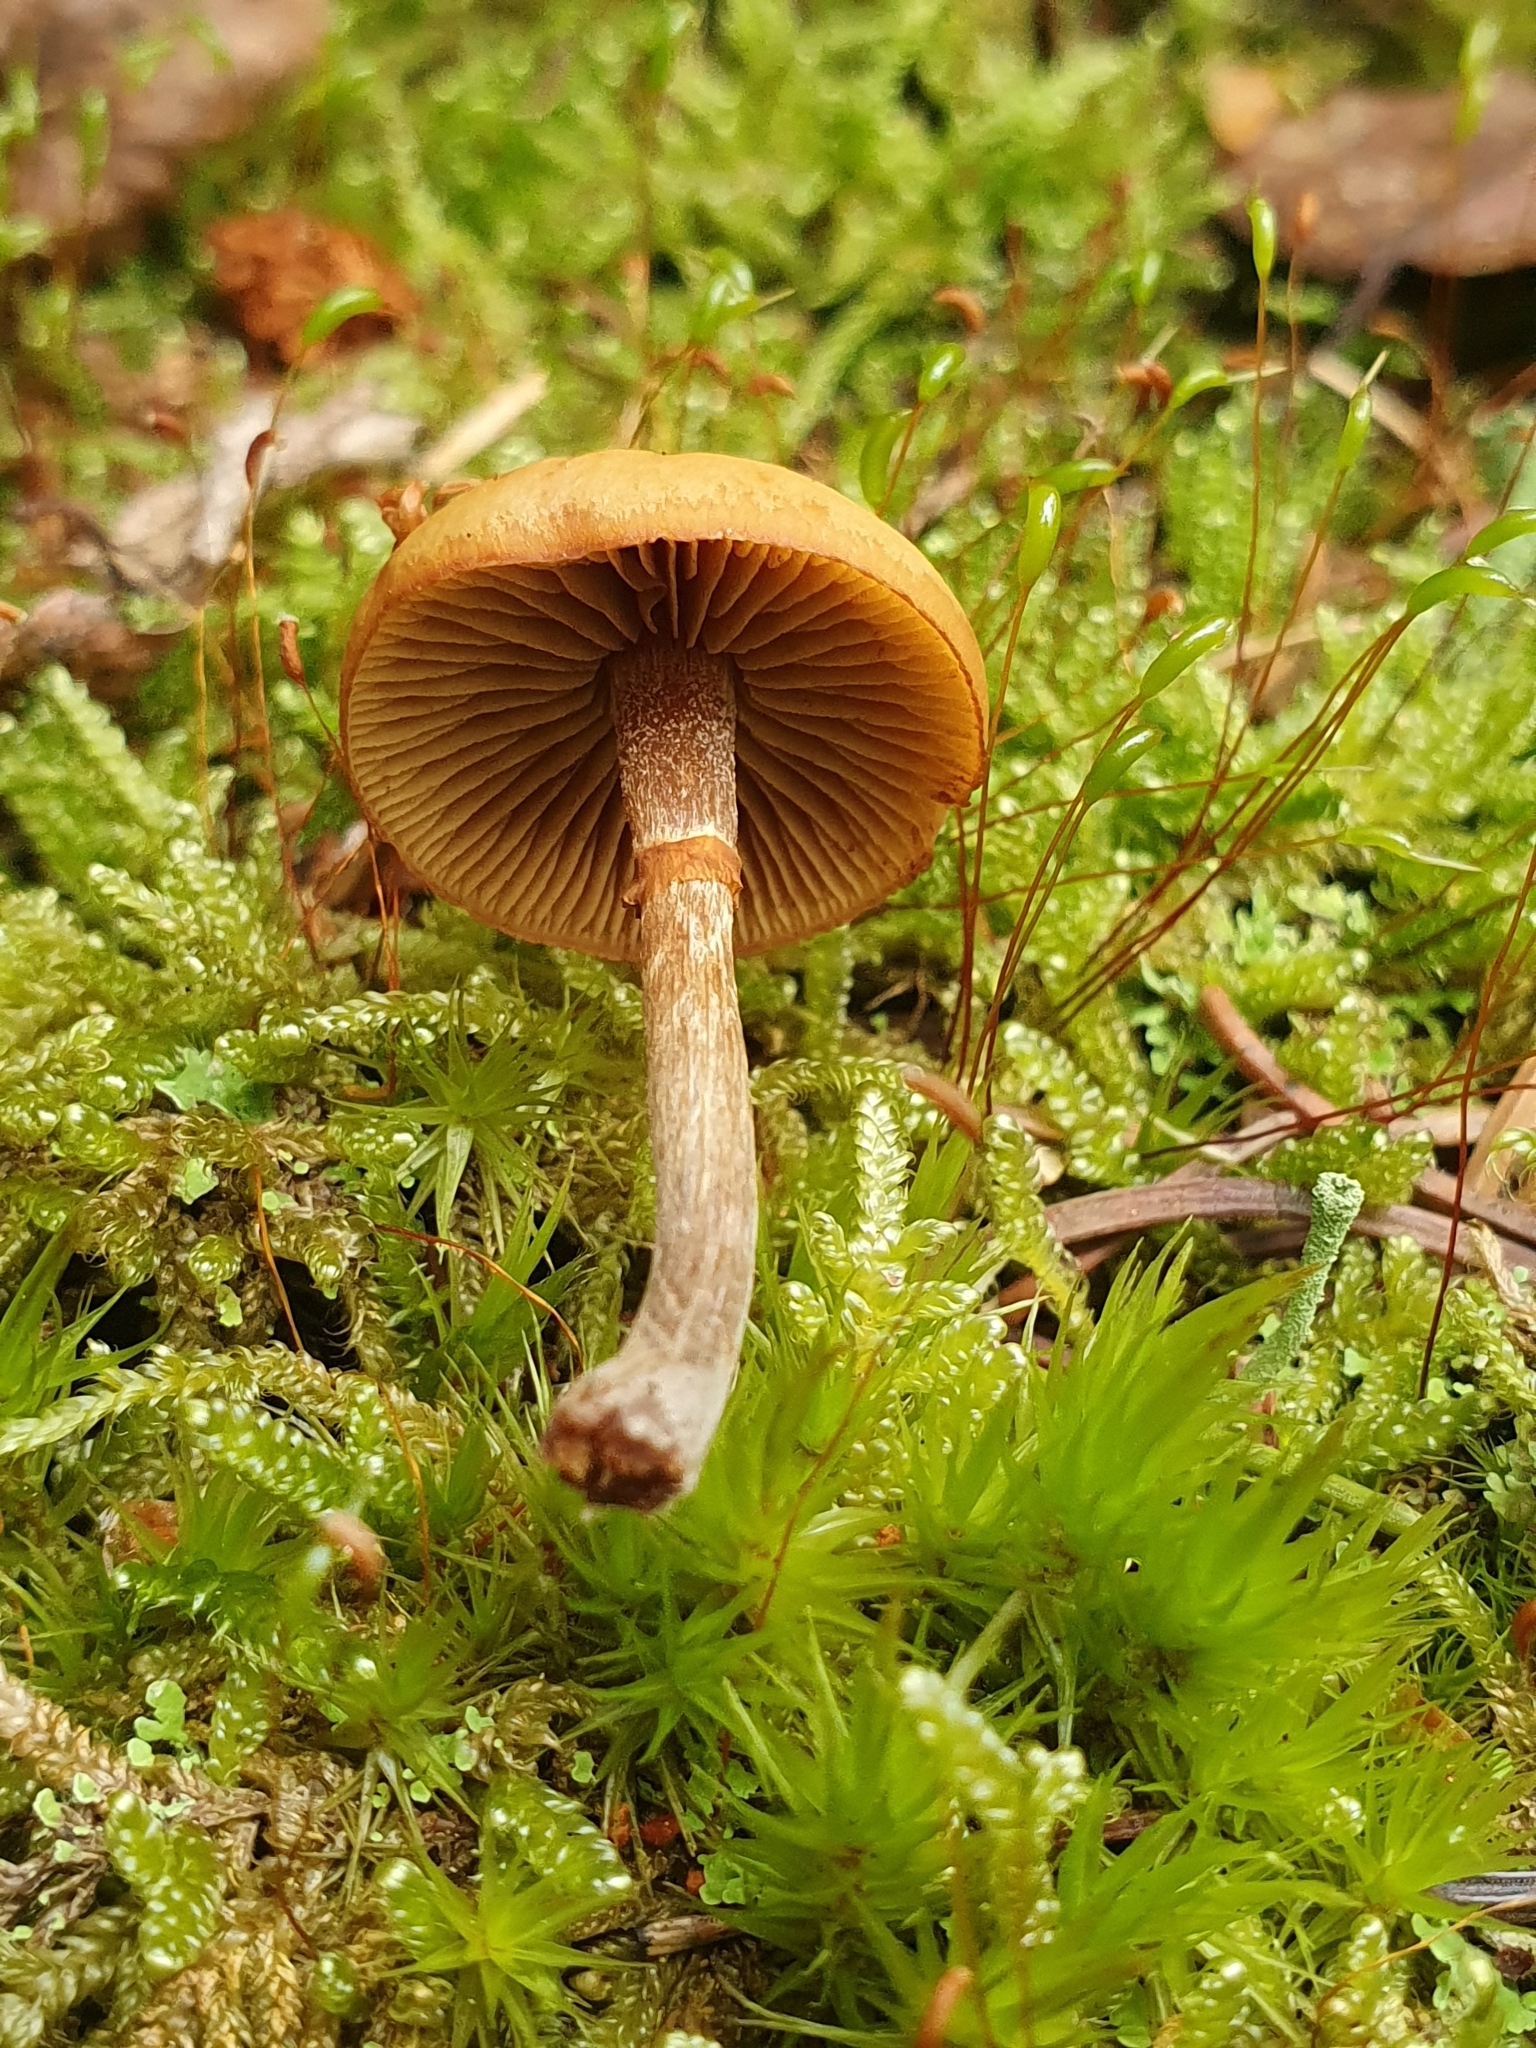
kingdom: Fungi
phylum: Basidiomycota
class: Agaricomycetes
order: Agaricales
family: Hymenogastraceae
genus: Galerina
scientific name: Galerina marginata
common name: Funeral bell
